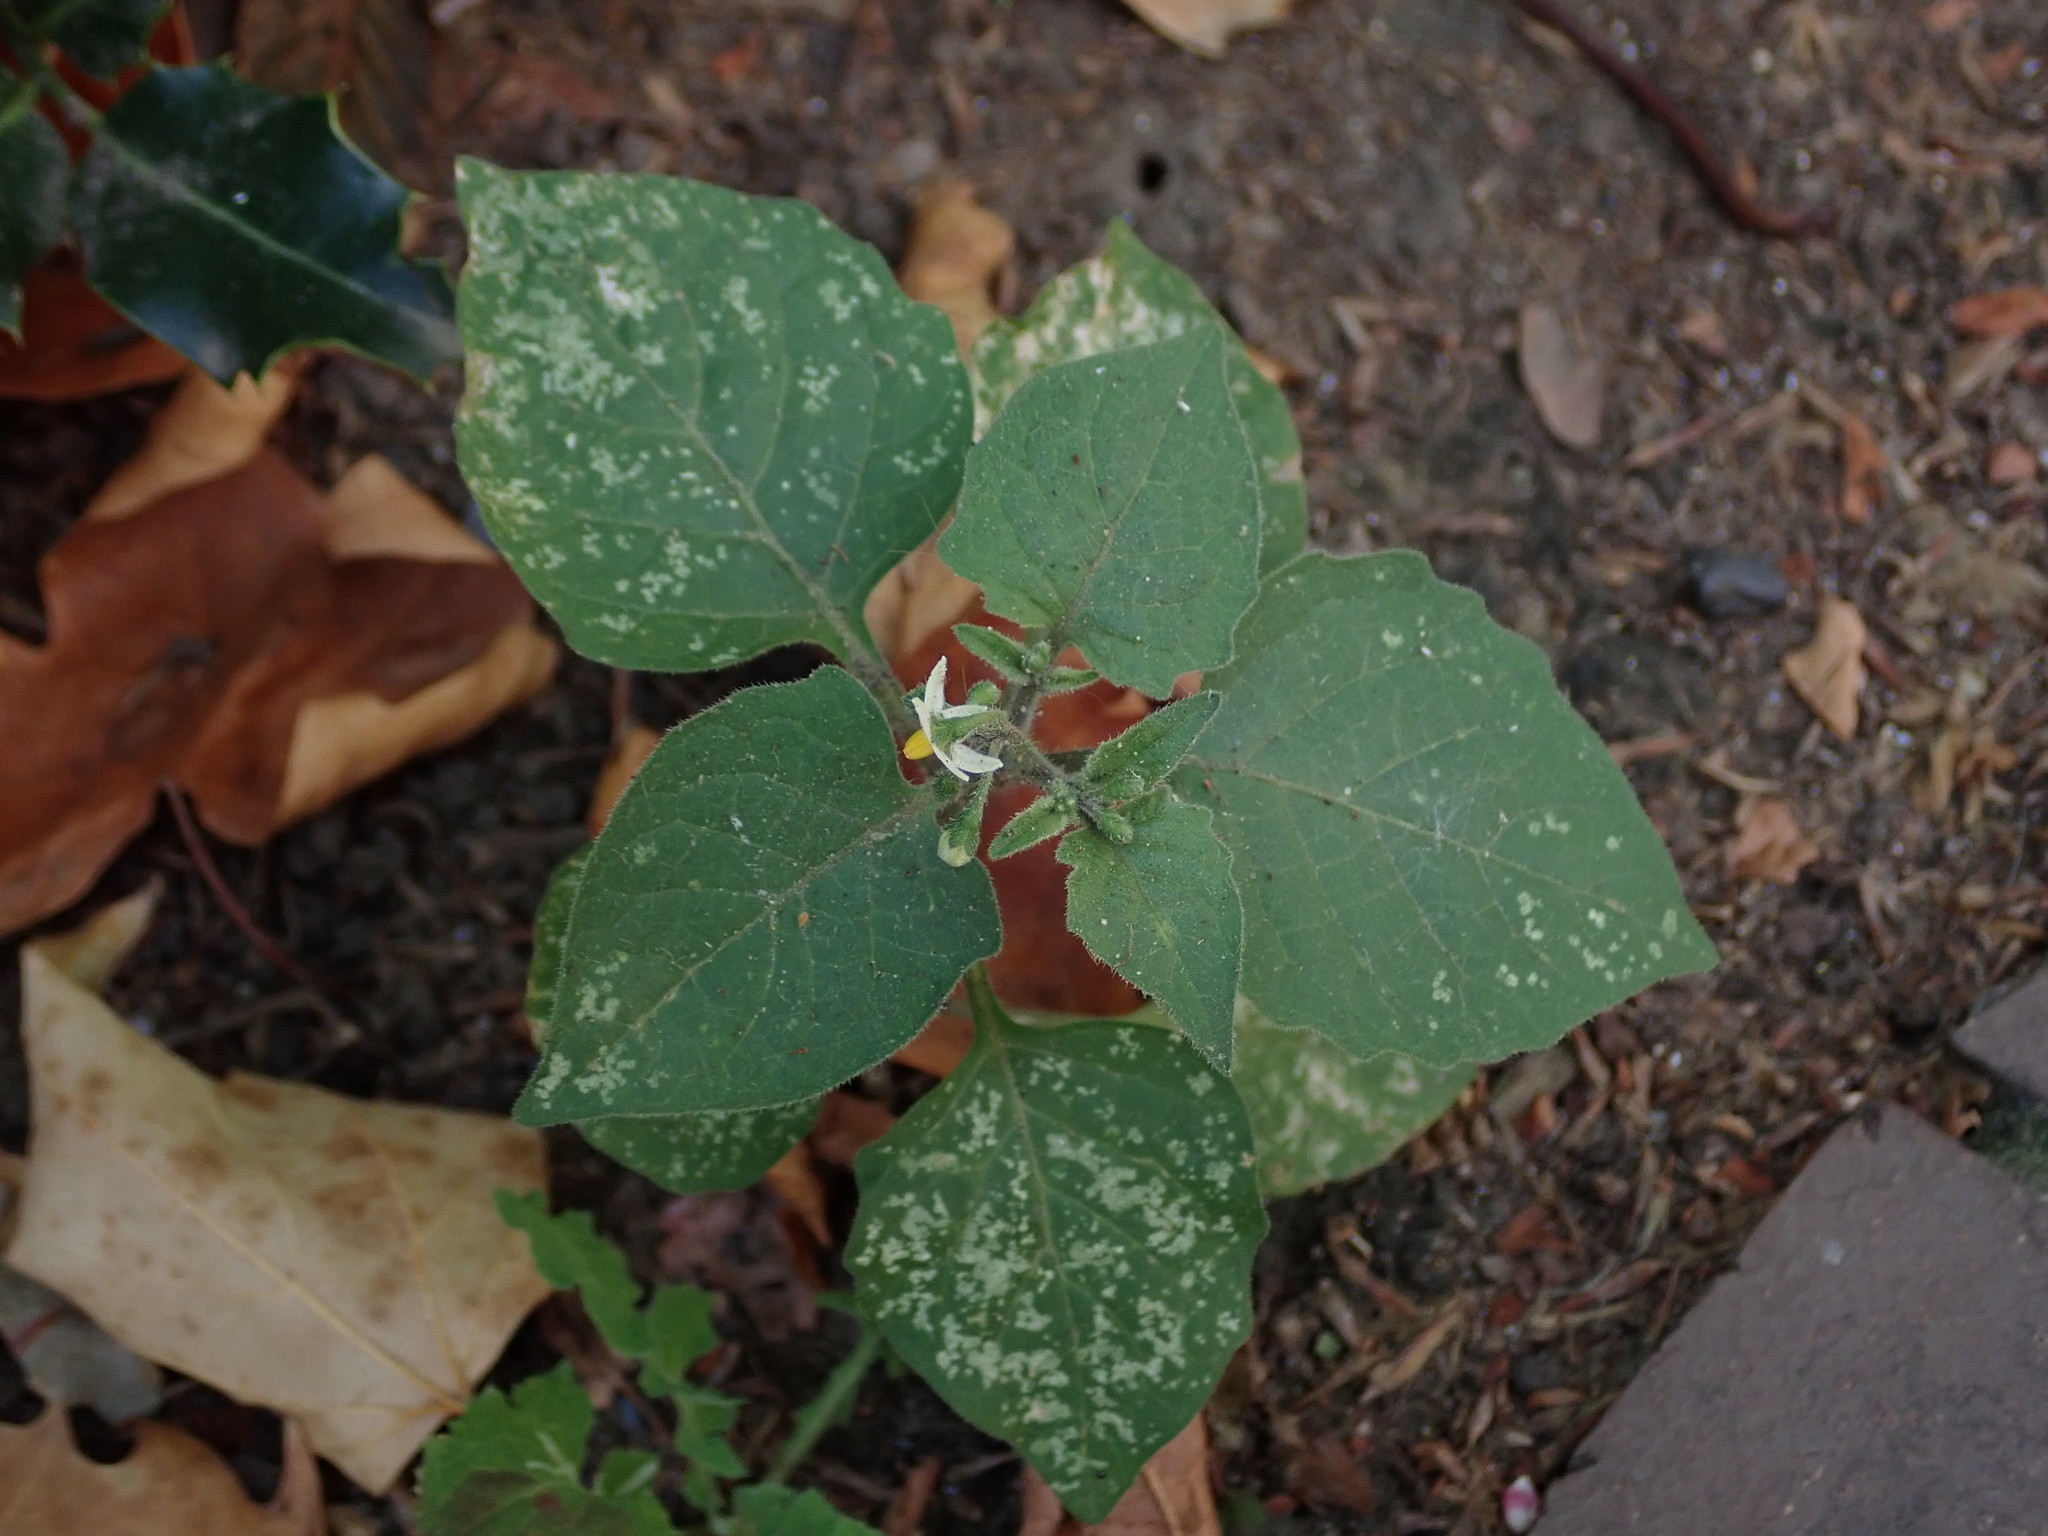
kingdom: Plantae
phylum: Tracheophyta
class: Magnoliopsida
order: Solanales
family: Solanaceae
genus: Solanum
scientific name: Solanum nigrum
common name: Black nightshade
